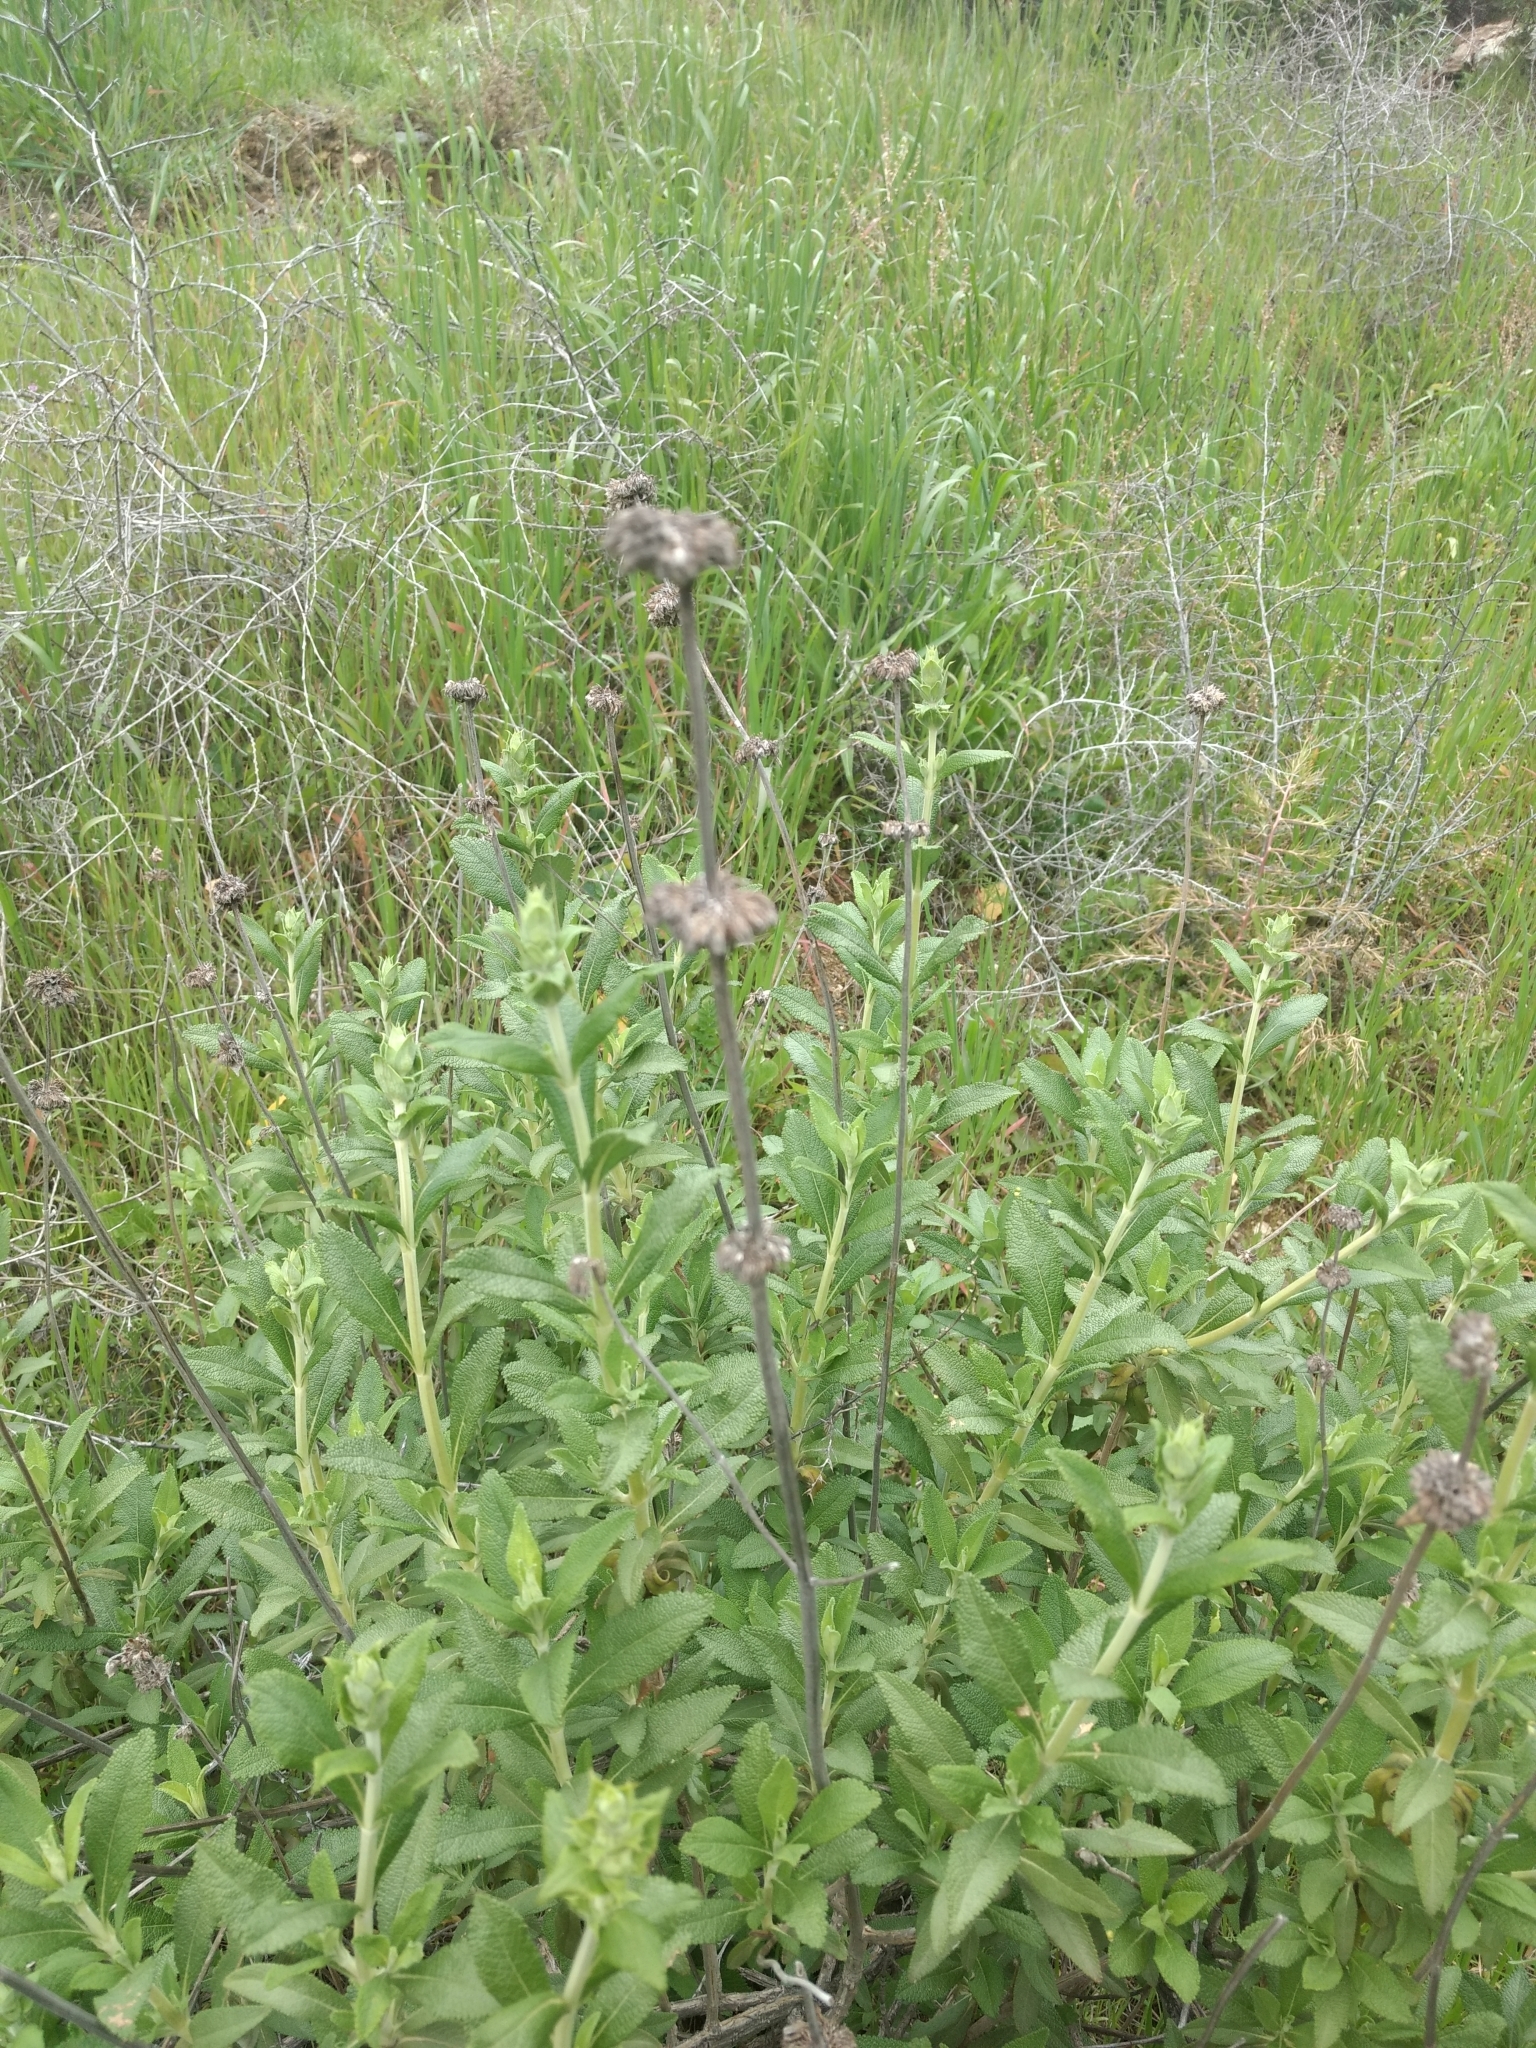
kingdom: Plantae
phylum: Tracheophyta
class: Magnoliopsida
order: Lamiales
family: Lamiaceae
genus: Salvia
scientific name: Salvia mellifera
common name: Black sage
